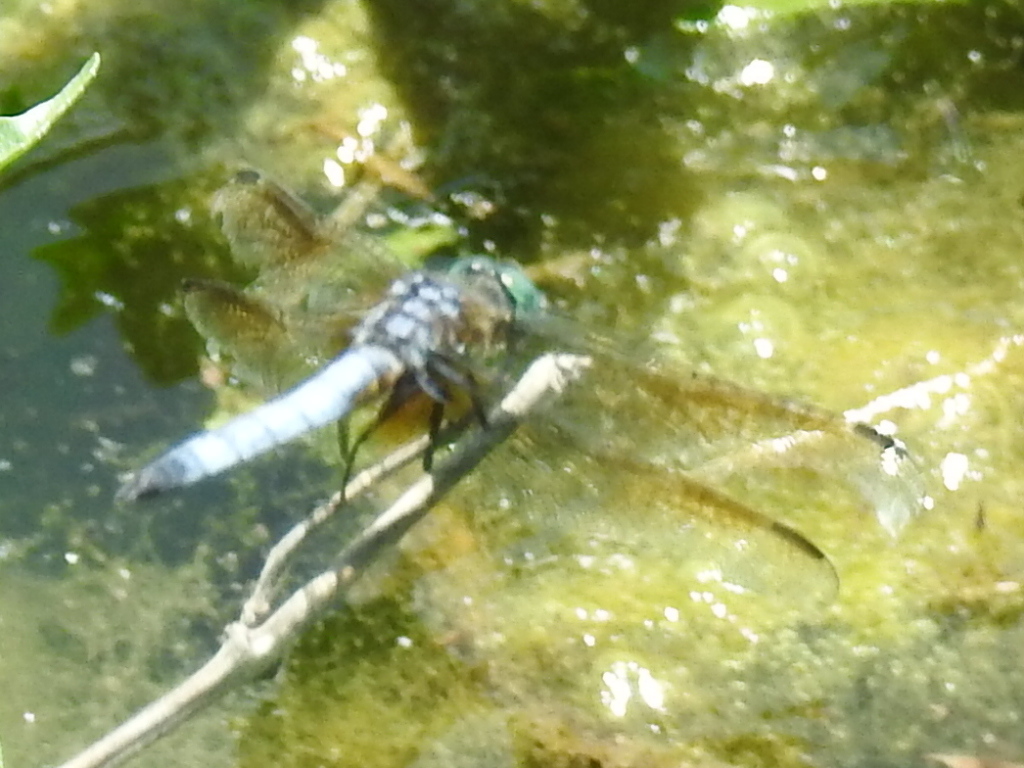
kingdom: Animalia
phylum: Arthropoda
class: Insecta
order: Odonata
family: Libellulidae
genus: Pachydiplax
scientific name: Pachydiplax longipennis
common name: Blue dasher
